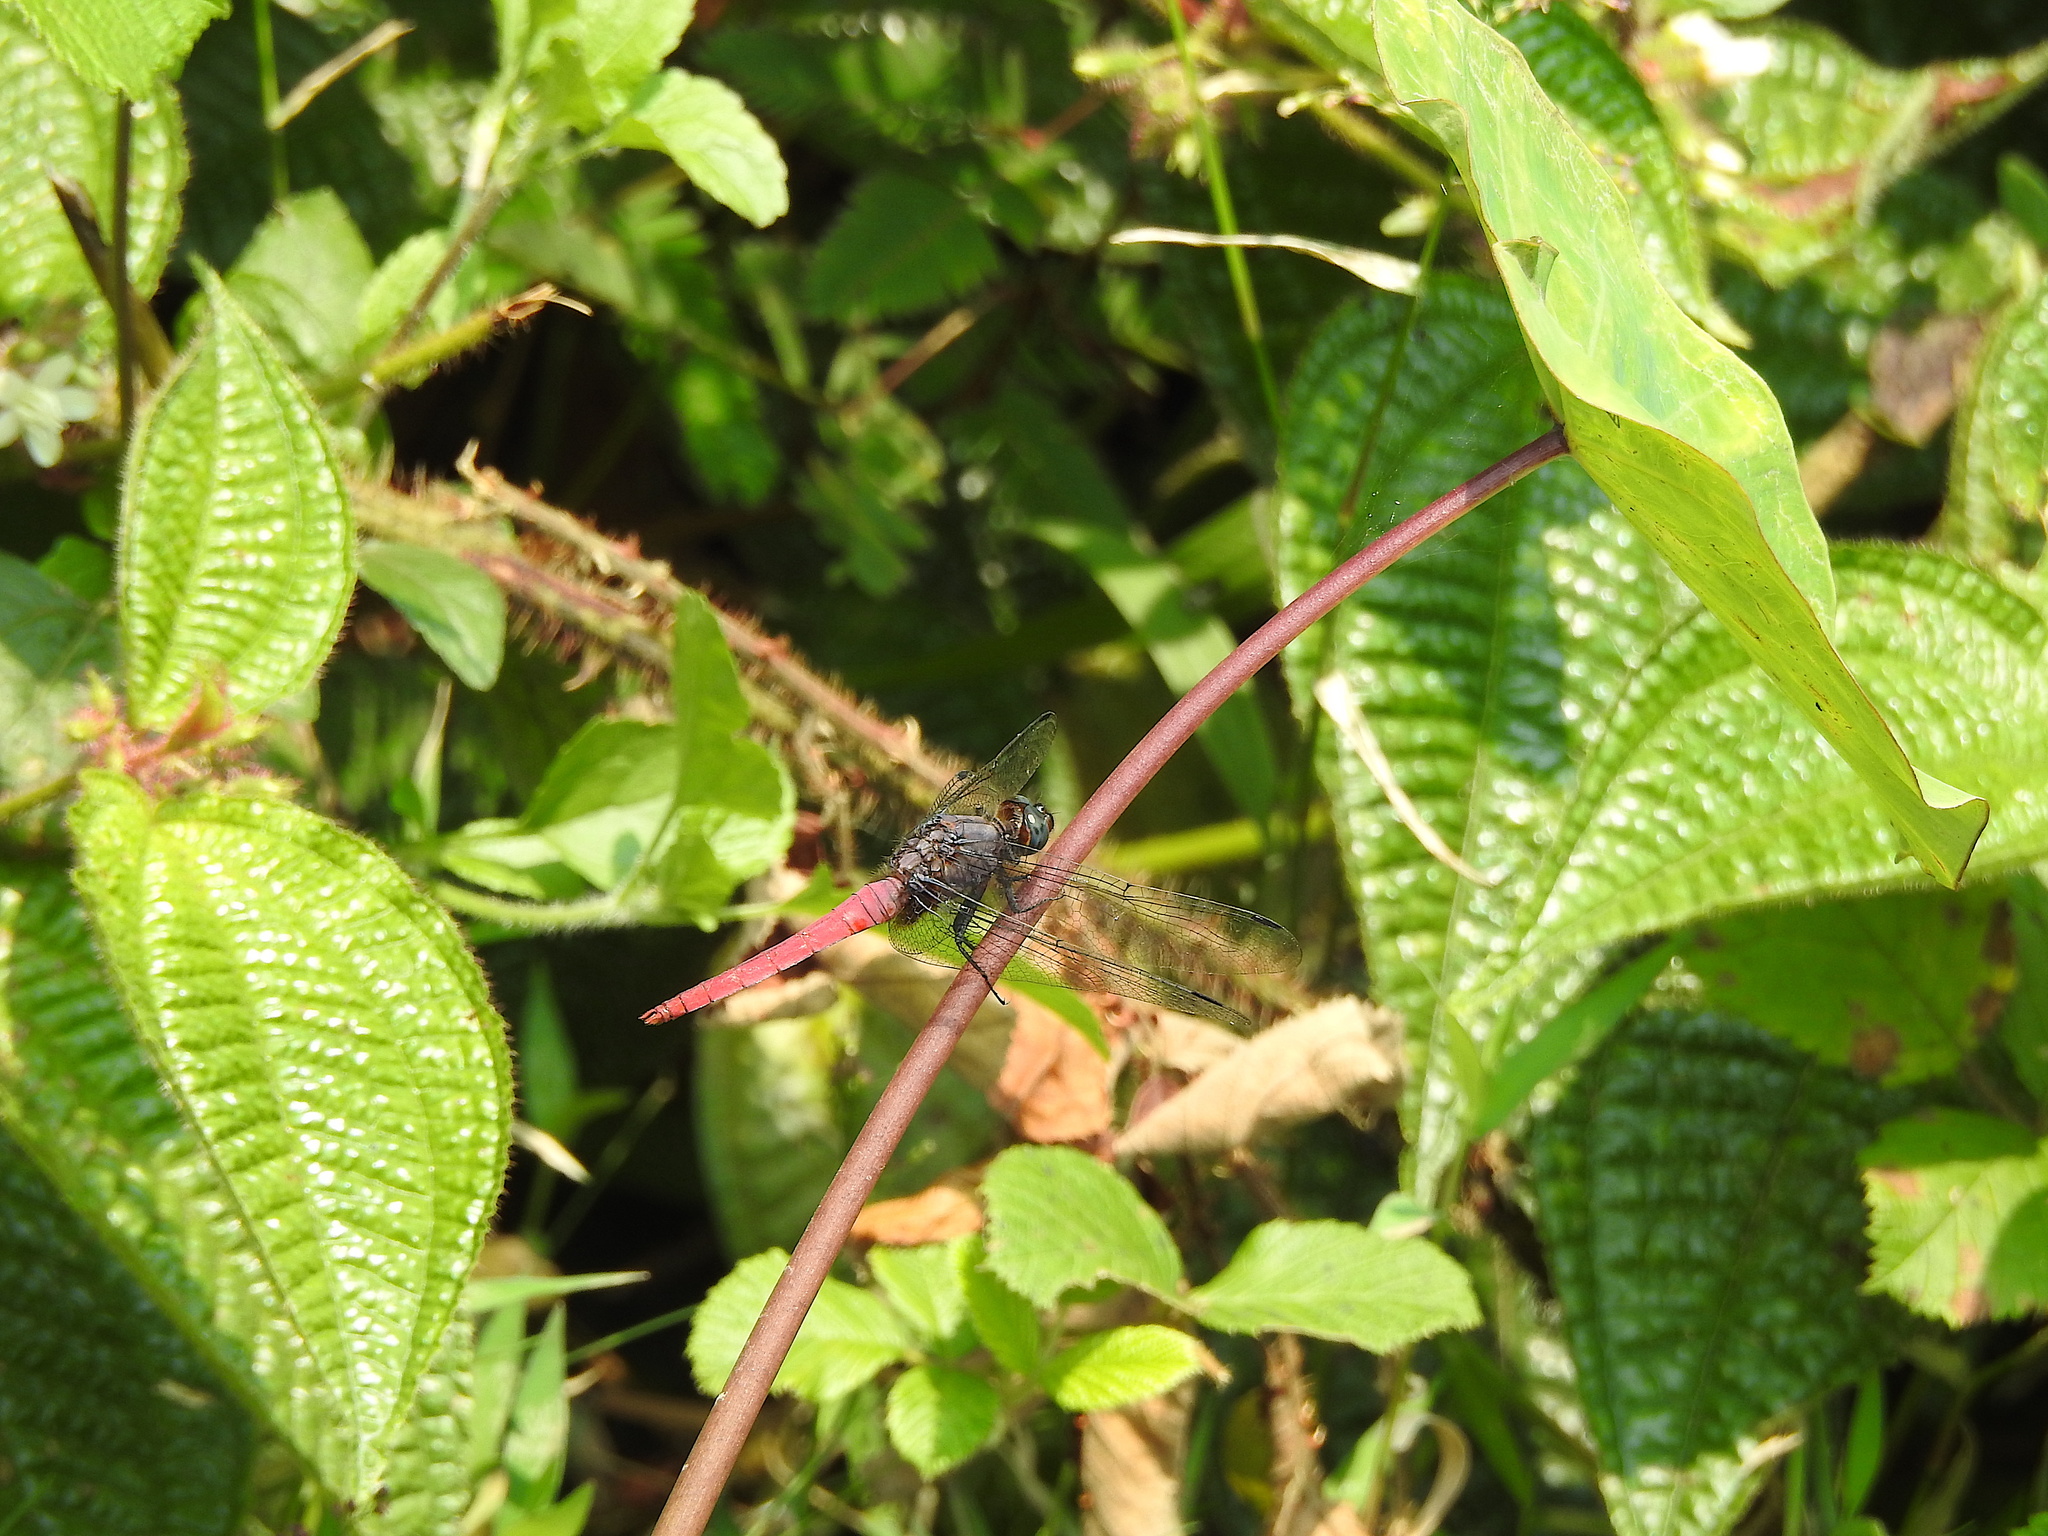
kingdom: Animalia
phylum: Arthropoda
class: Insecta
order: Odonata
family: Libellulidae
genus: Orthetrum
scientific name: Orthetrum pruinosum
